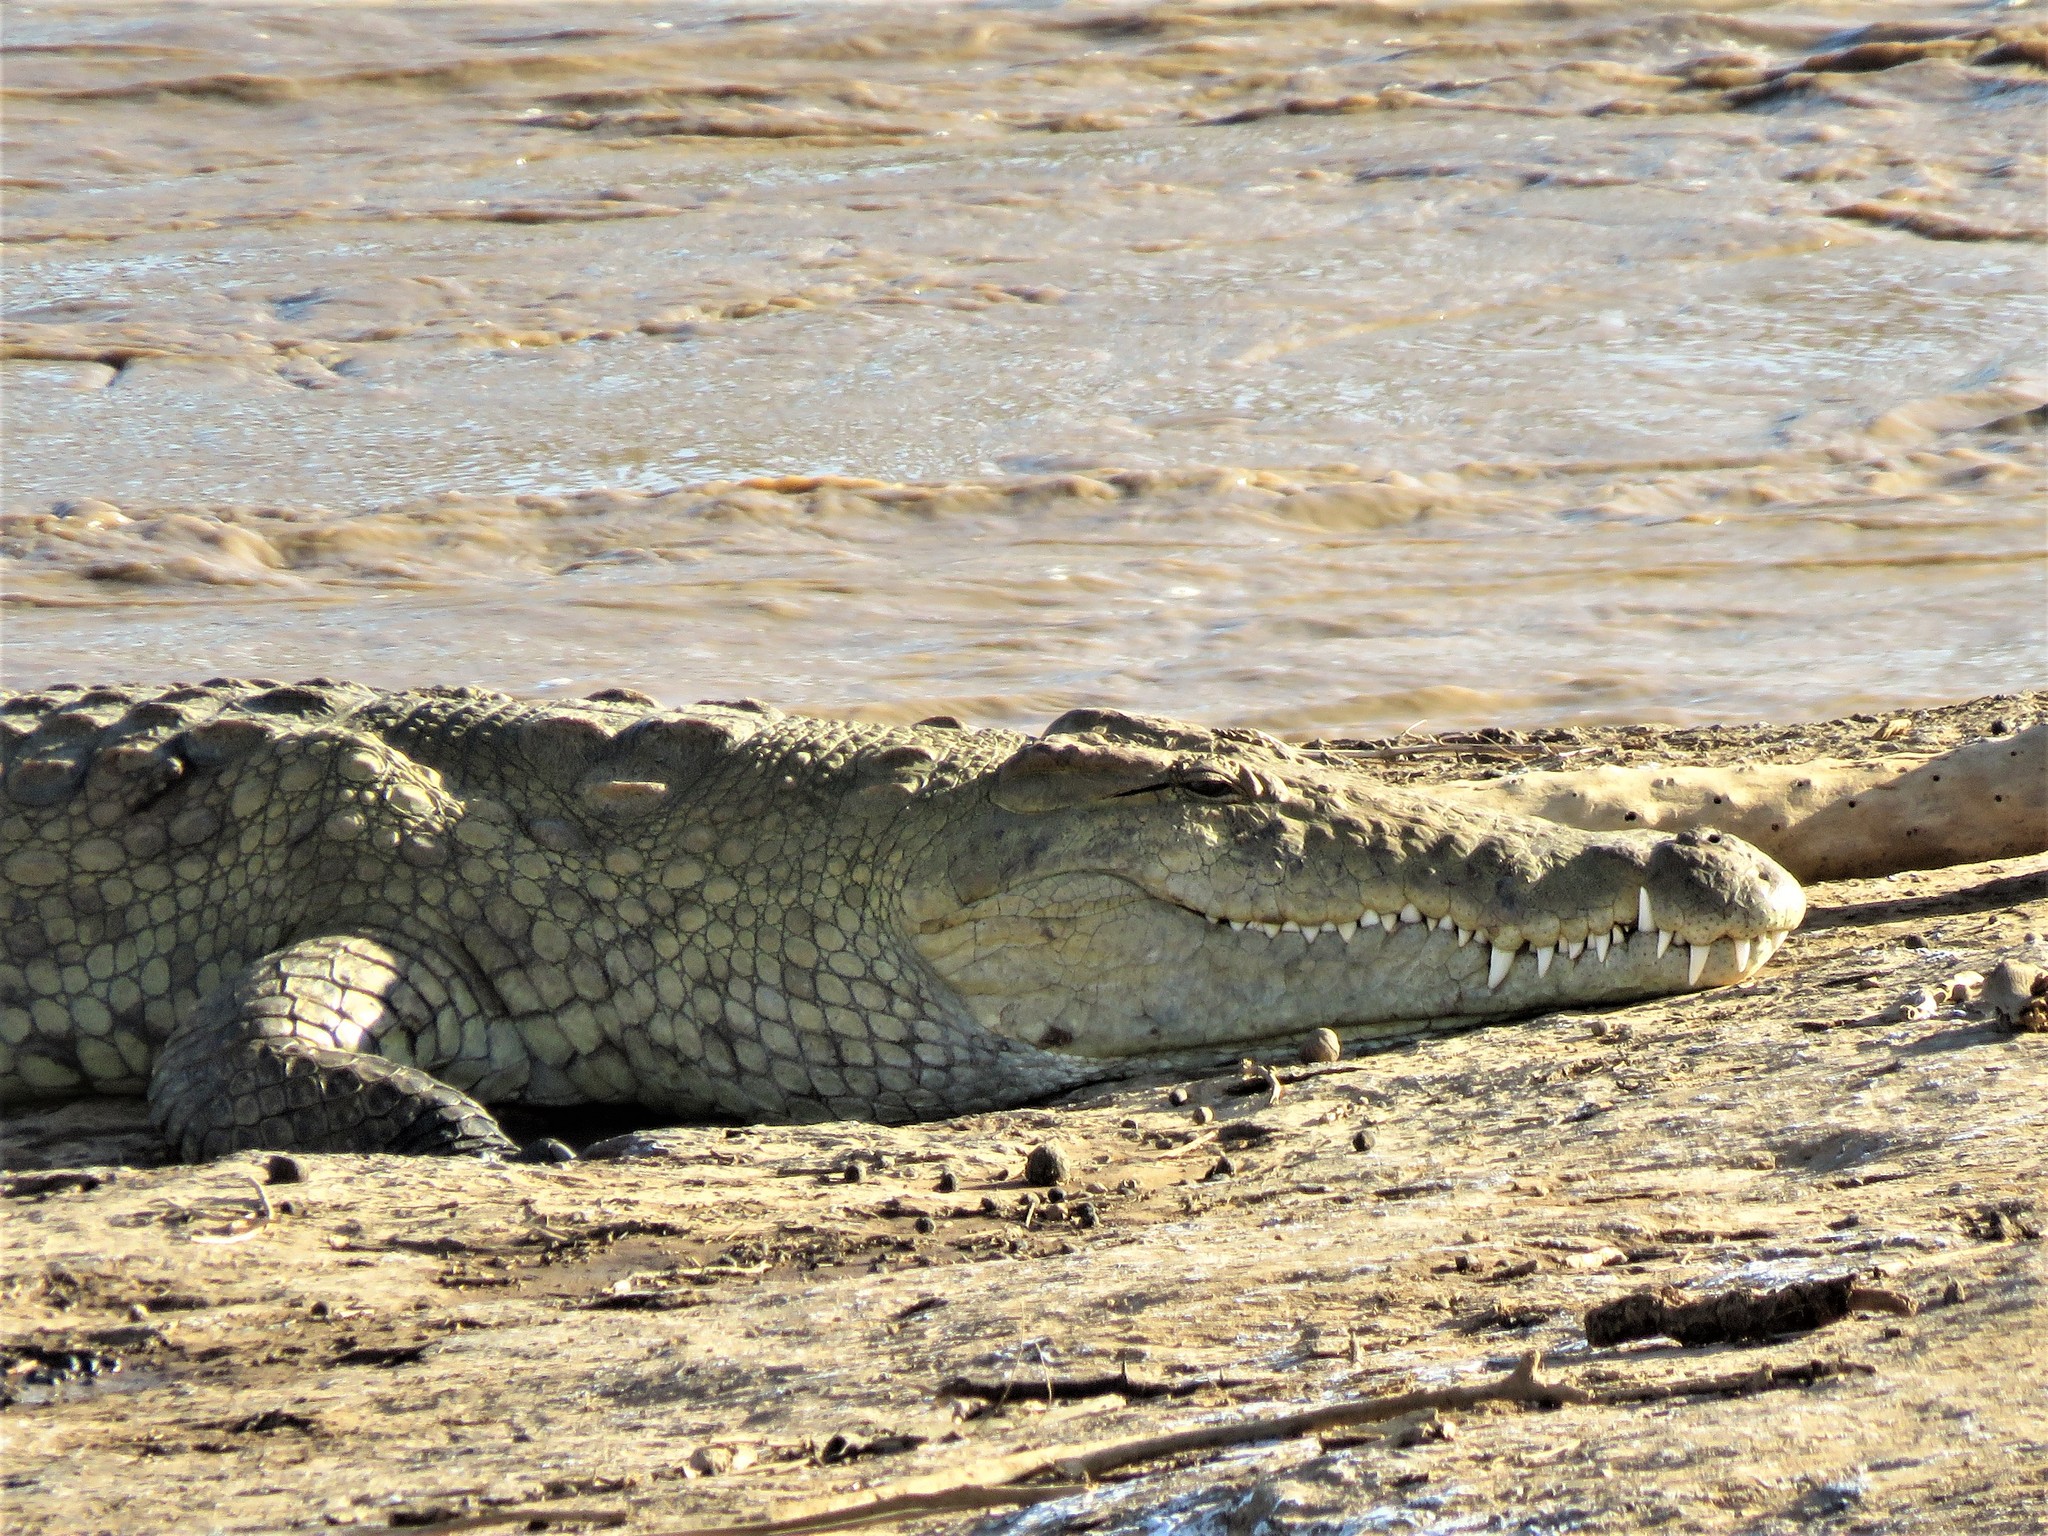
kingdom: Animalia
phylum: Chordata
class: Crocodylia
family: Crocodylidae
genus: Crocodylus
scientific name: Crocodylus niloticus
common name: Nile crocodile
